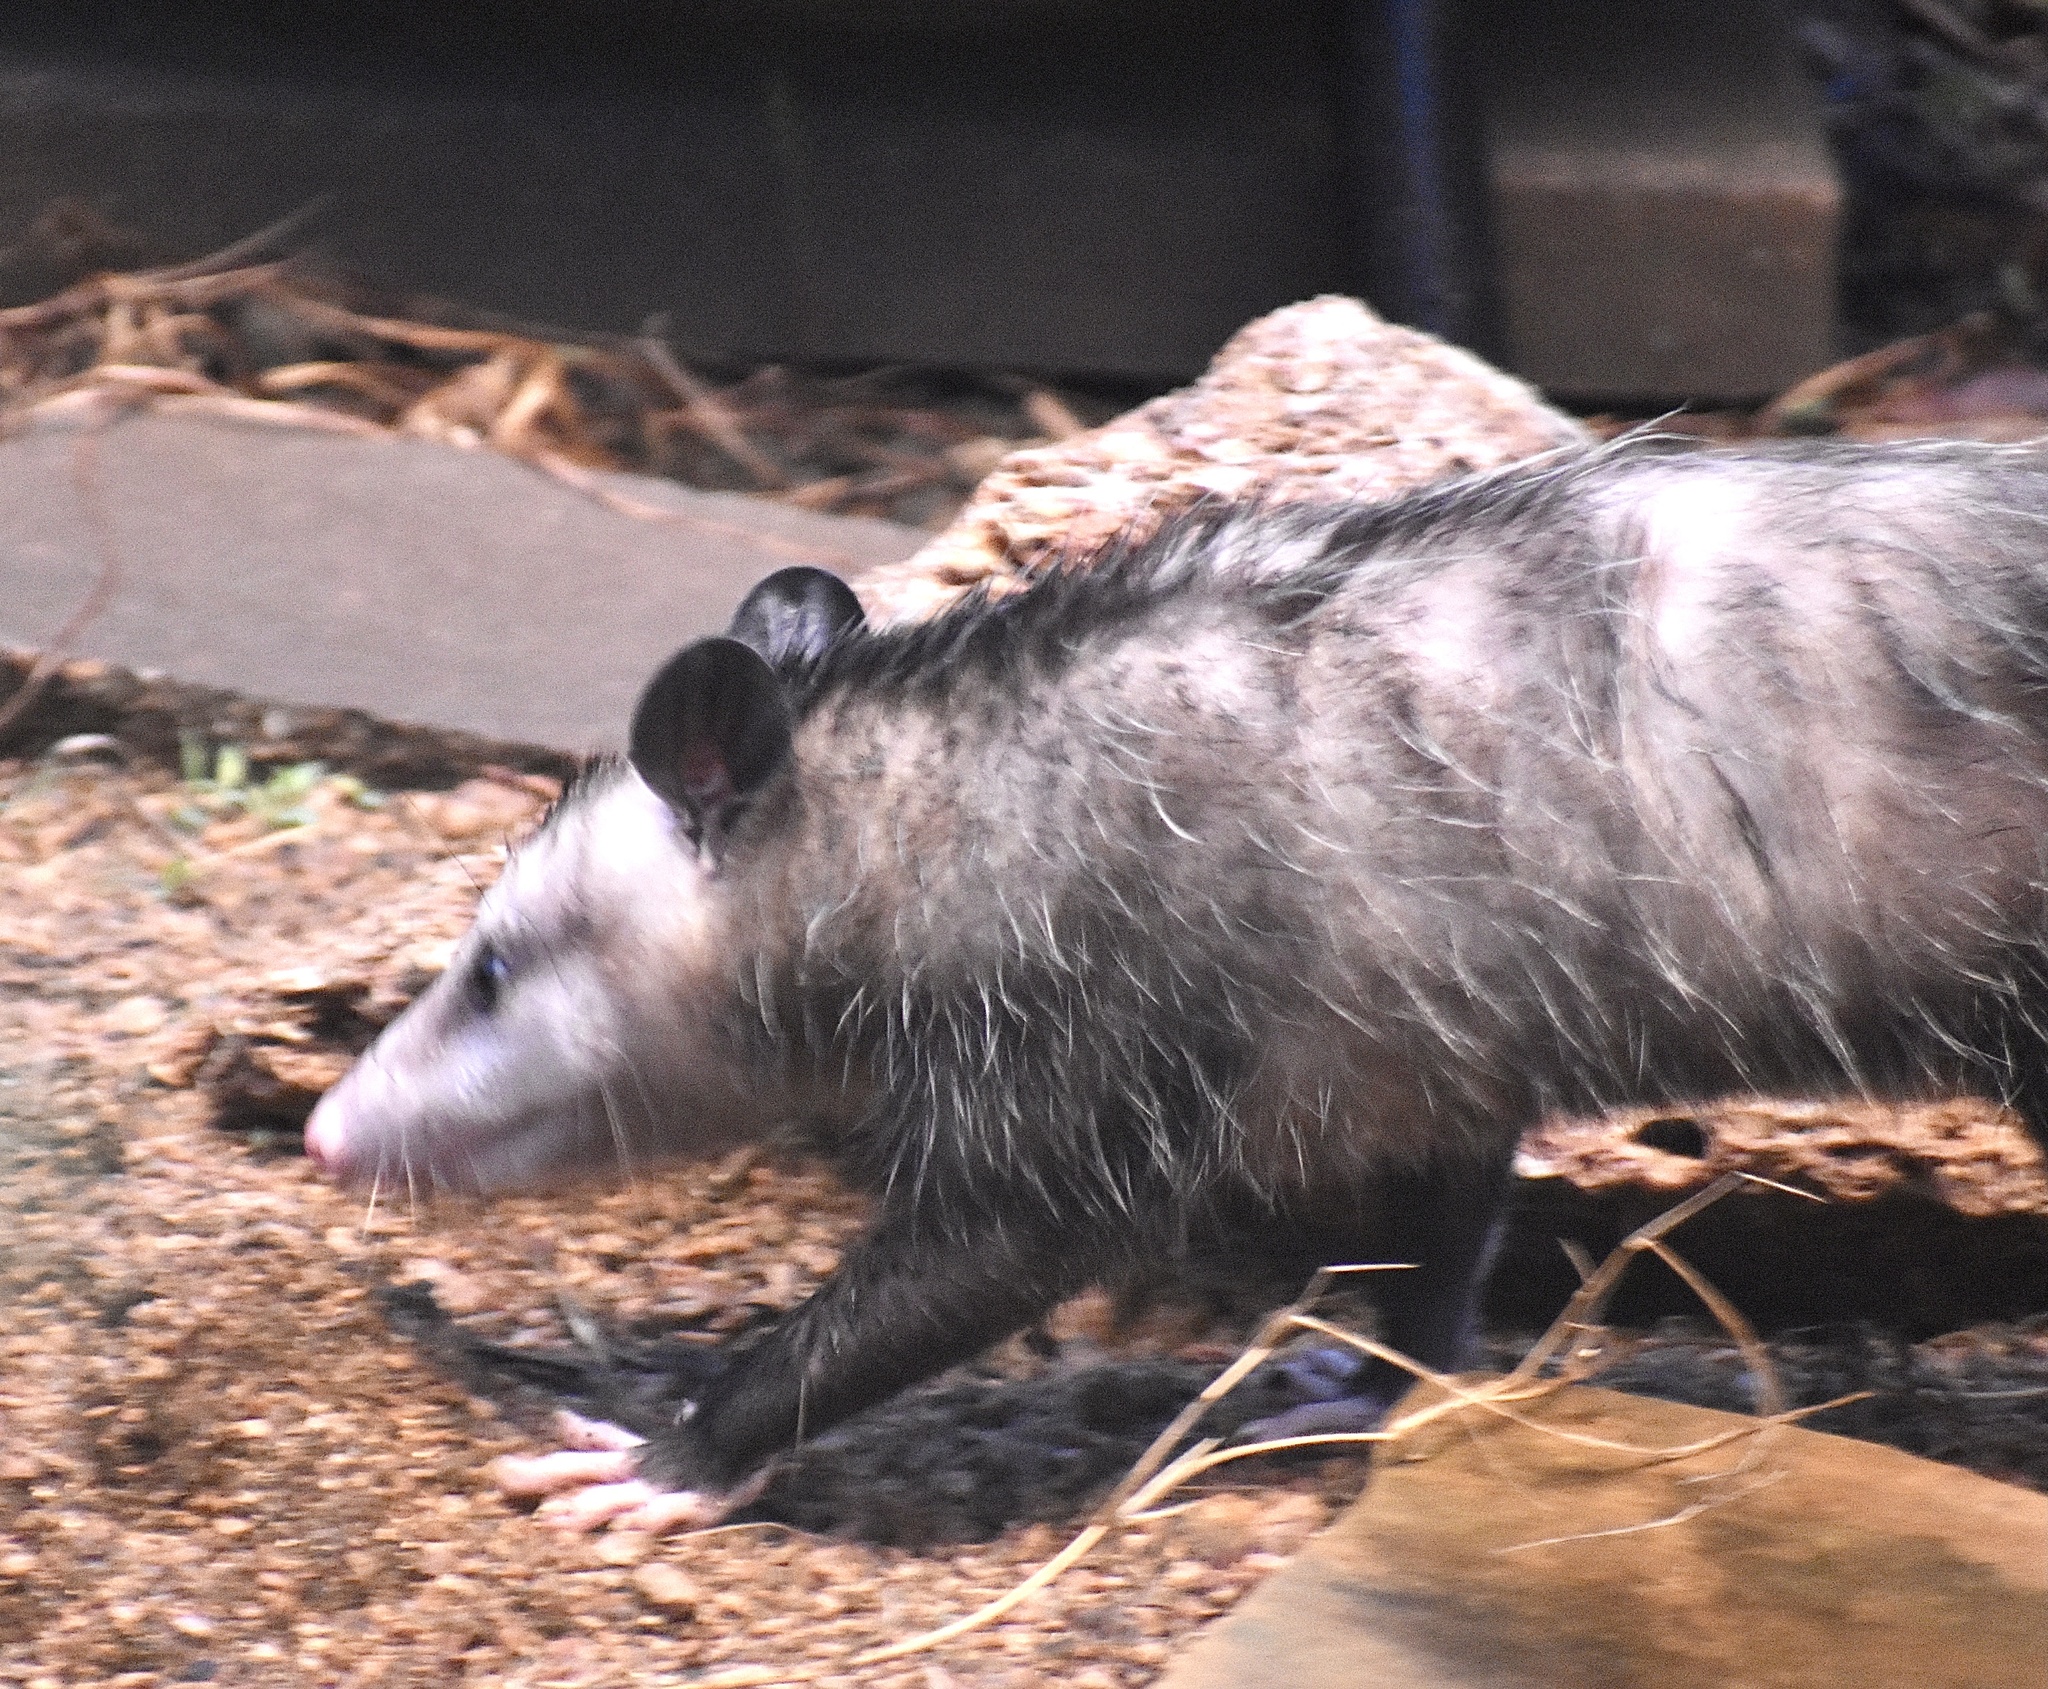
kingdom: Animalia
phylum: Chordata
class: Mammalia
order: Didelphimorphia
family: Didelphidae
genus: Didelphis
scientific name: Didelphis virginiana
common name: Virginia opossum
